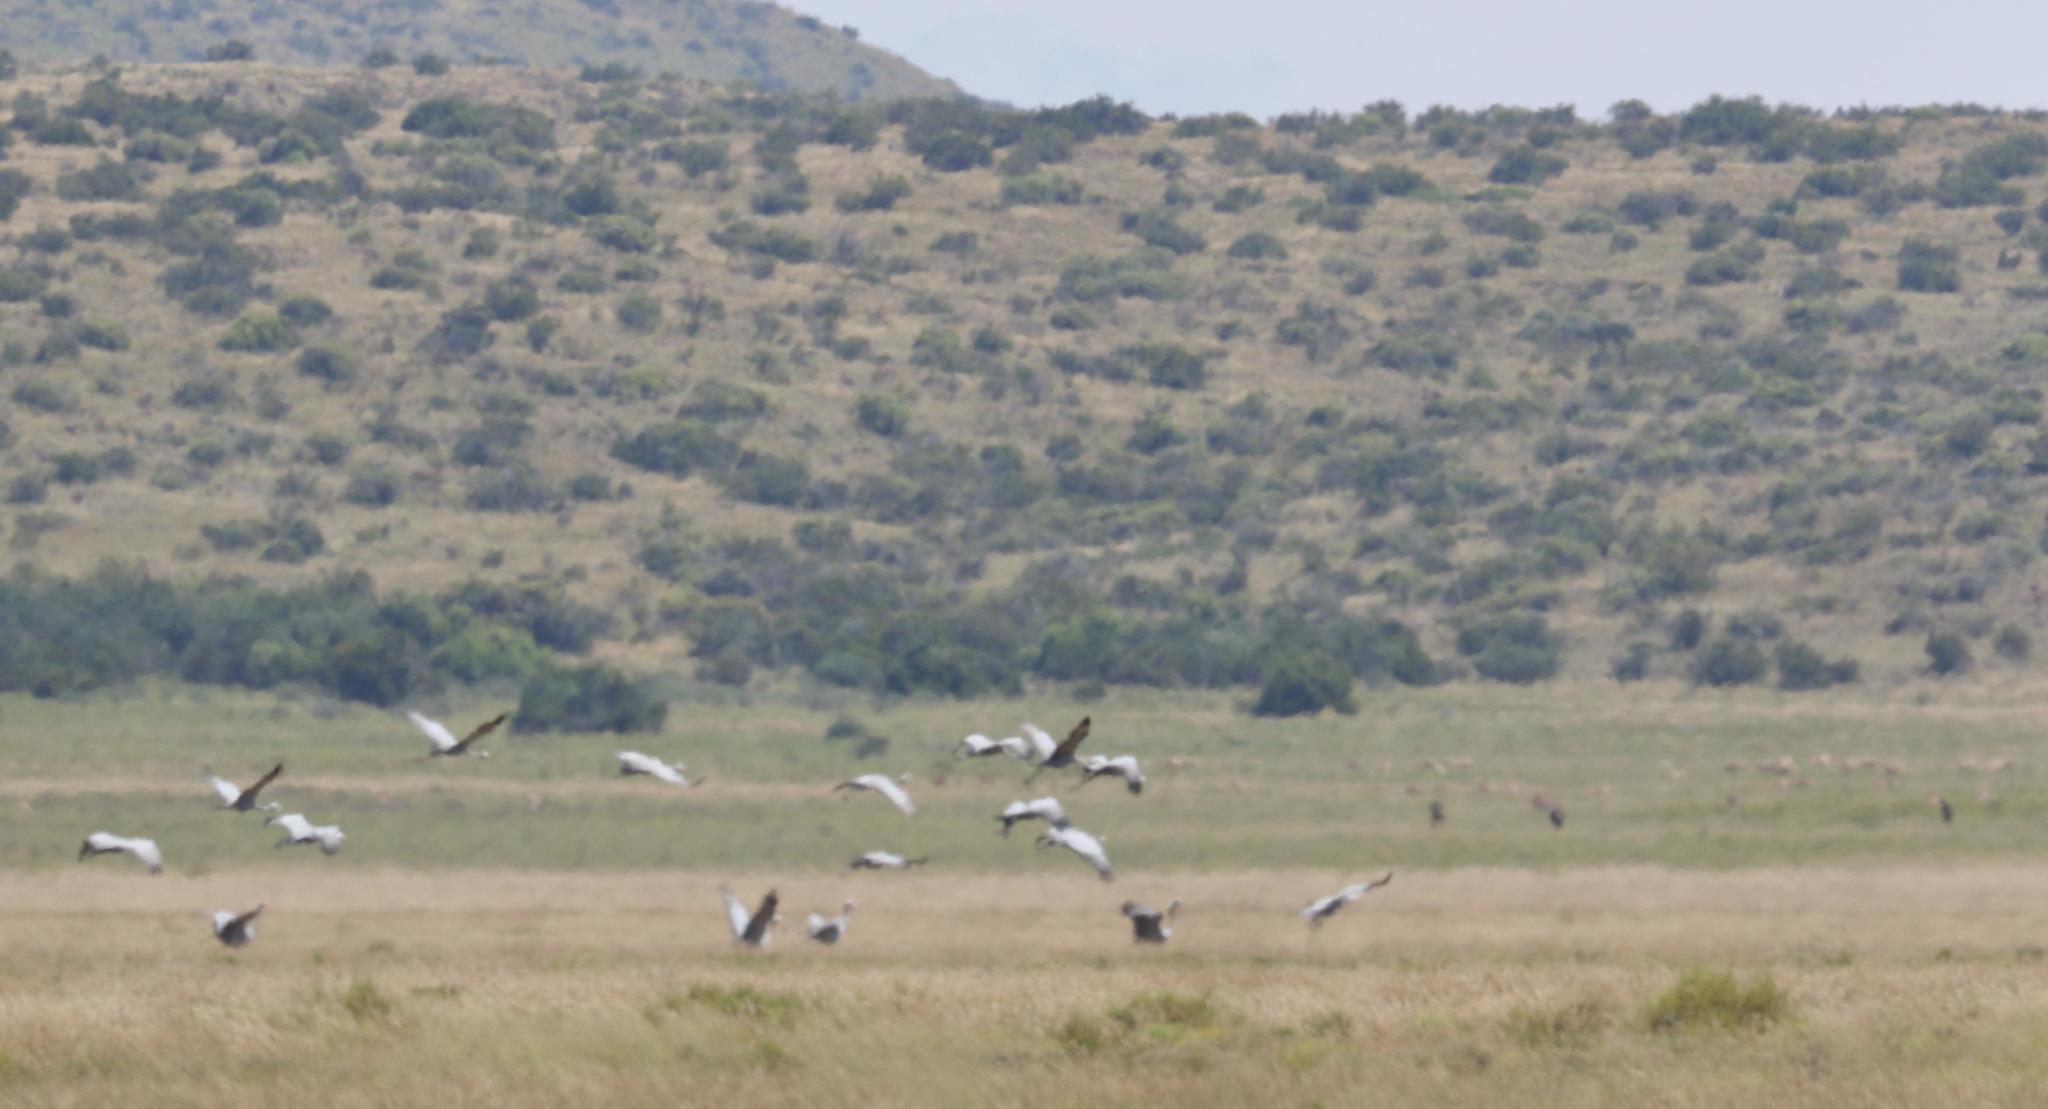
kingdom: Animalia
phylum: Chordata
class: Aves
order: Gruiformes
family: Gruidae
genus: Anthropoides
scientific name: Anthropoides paradiseus
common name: Blue crane
